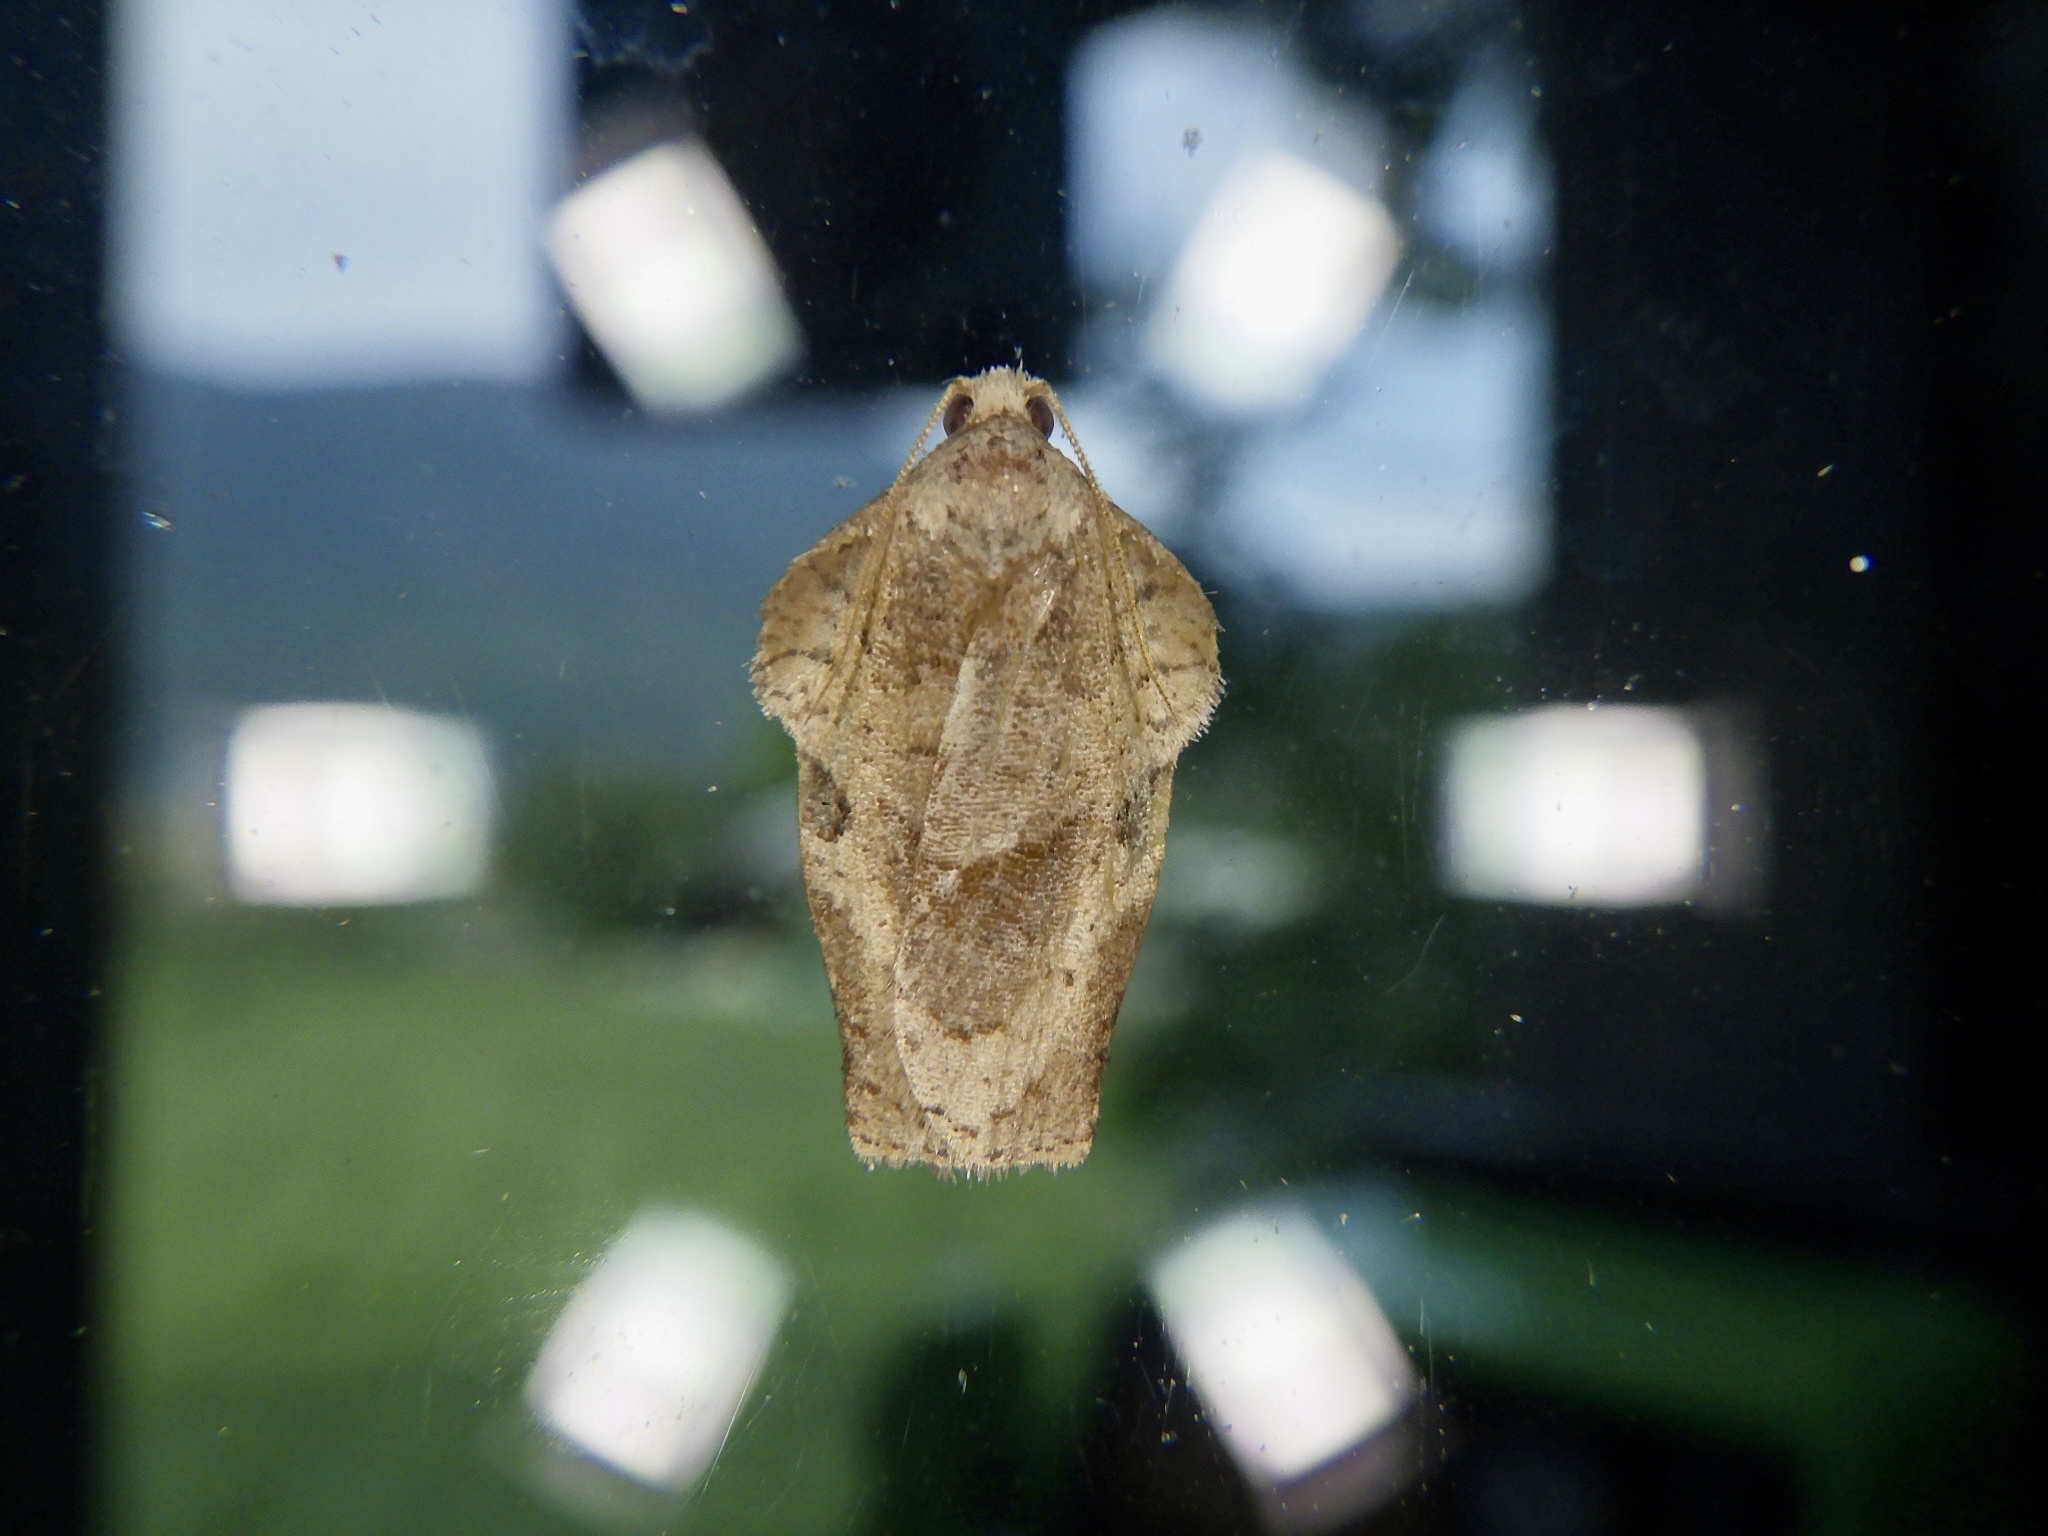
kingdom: Animalia
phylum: Arthropoda
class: Insecta
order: Lepidoptera
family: Tortricidae
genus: Homona
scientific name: Homona magnanima
